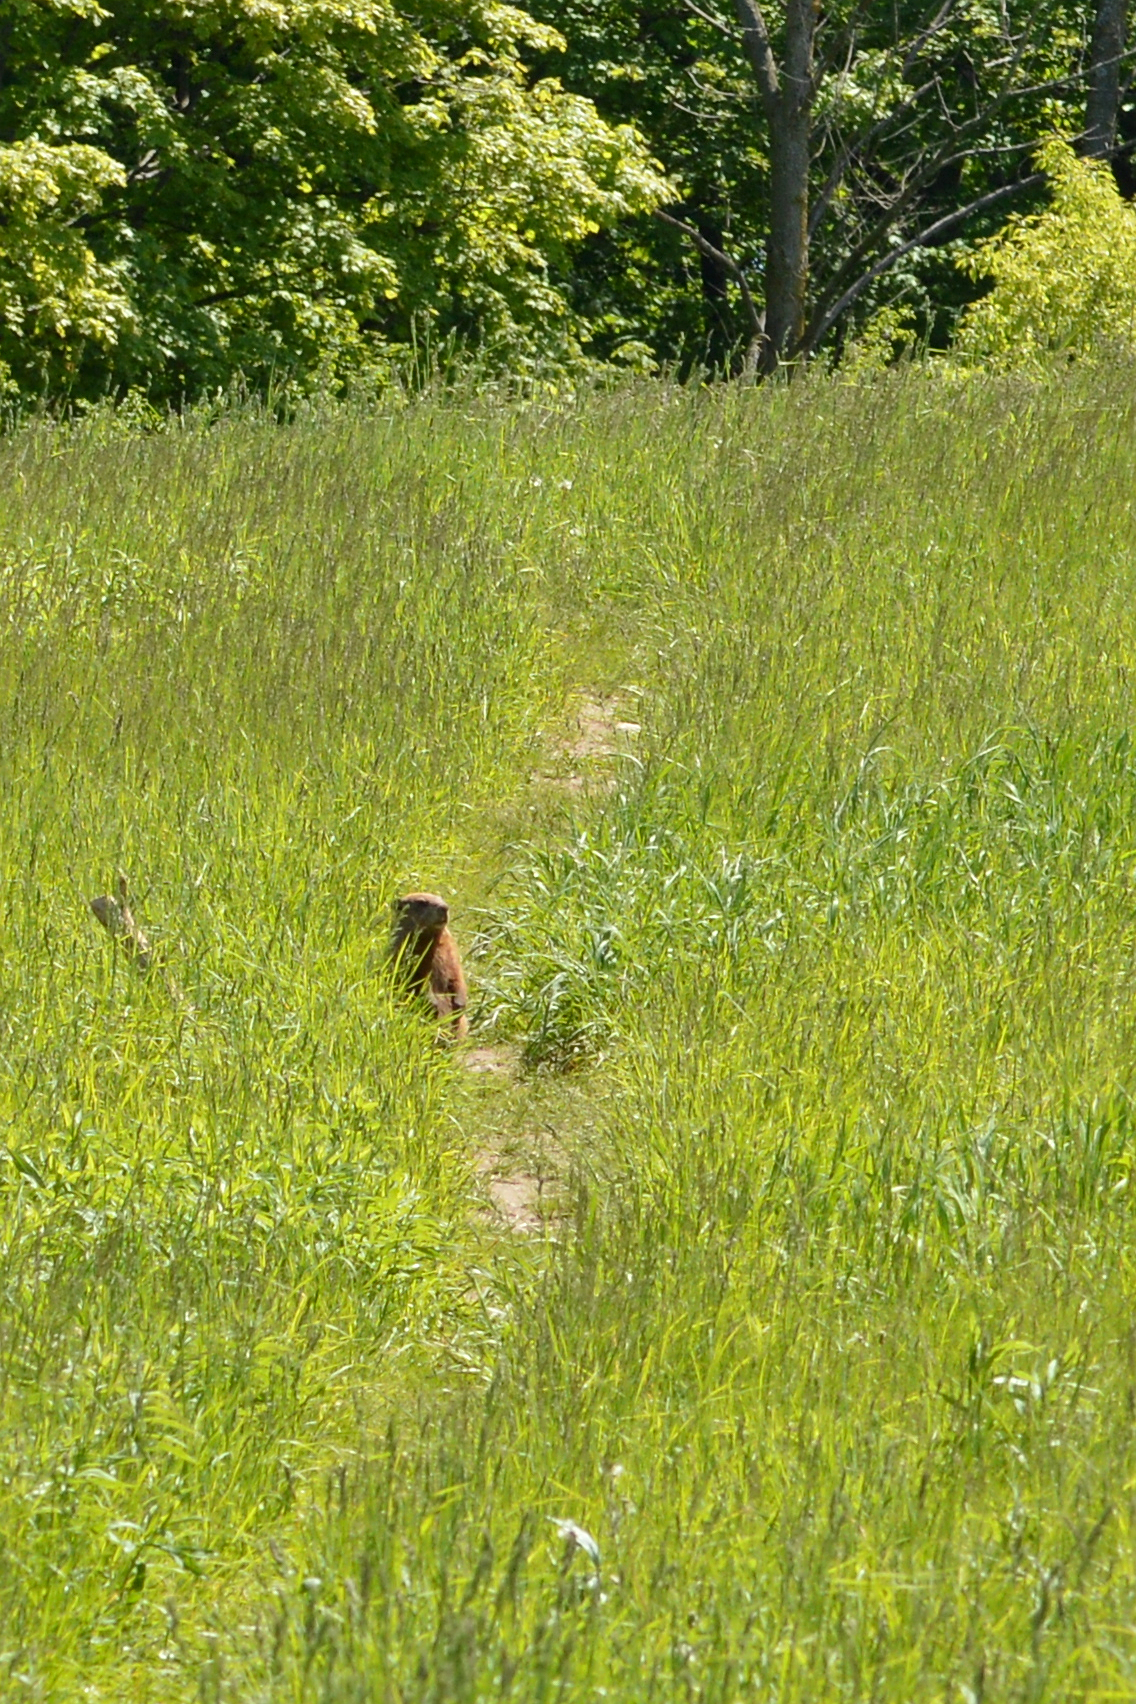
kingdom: Animalia
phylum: Chordata
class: Mammalia
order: Rodentia
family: Sciuridae
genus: Marmota
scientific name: Marmota monax
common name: Groundhog
